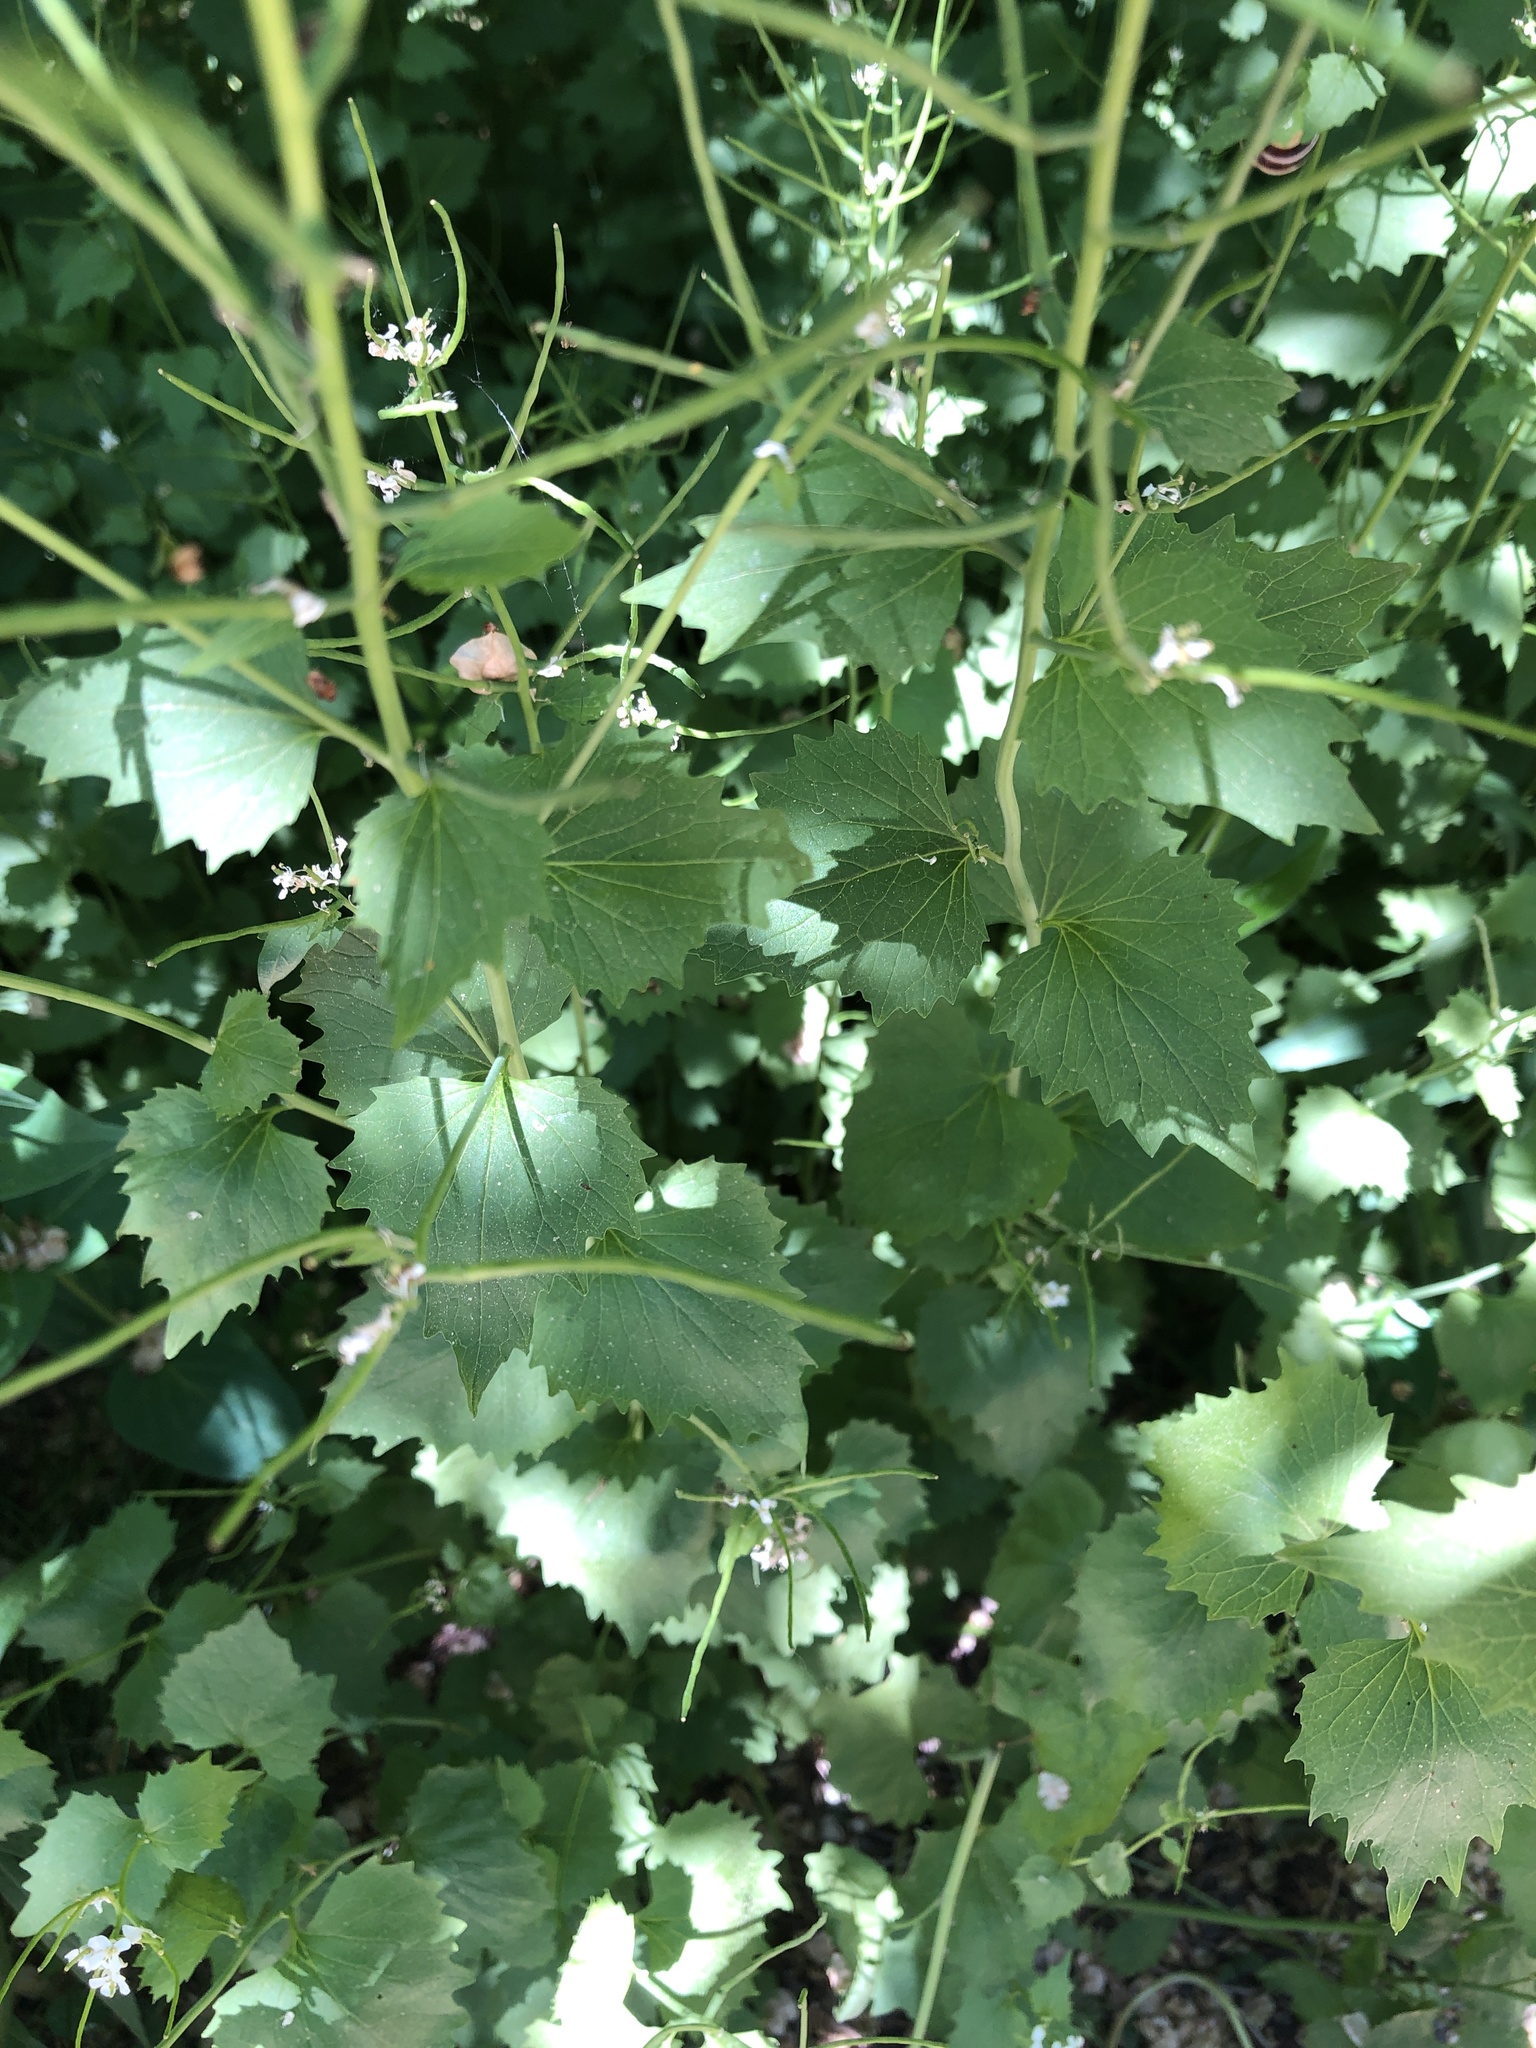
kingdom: Plantae
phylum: Tracheophyta
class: Magnoliopsida
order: Brassicales
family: Brassicaceae
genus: Alliaria
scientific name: Alliaria petiolata
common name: Garlic mustard
